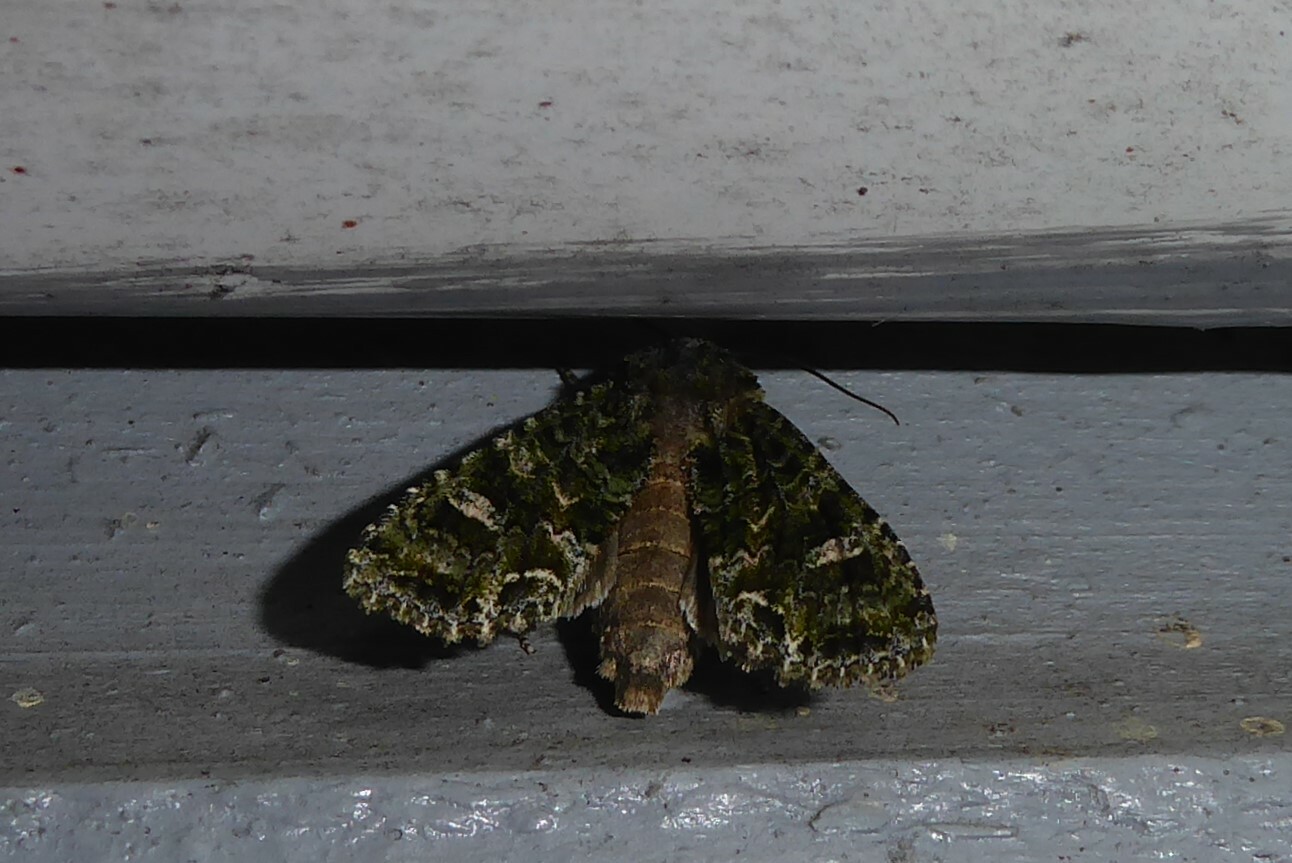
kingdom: Animalia
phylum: Arthropoda
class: Insecta
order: Lepidoptera
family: Noctuidae
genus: Ichneutica
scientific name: Ichneutica
